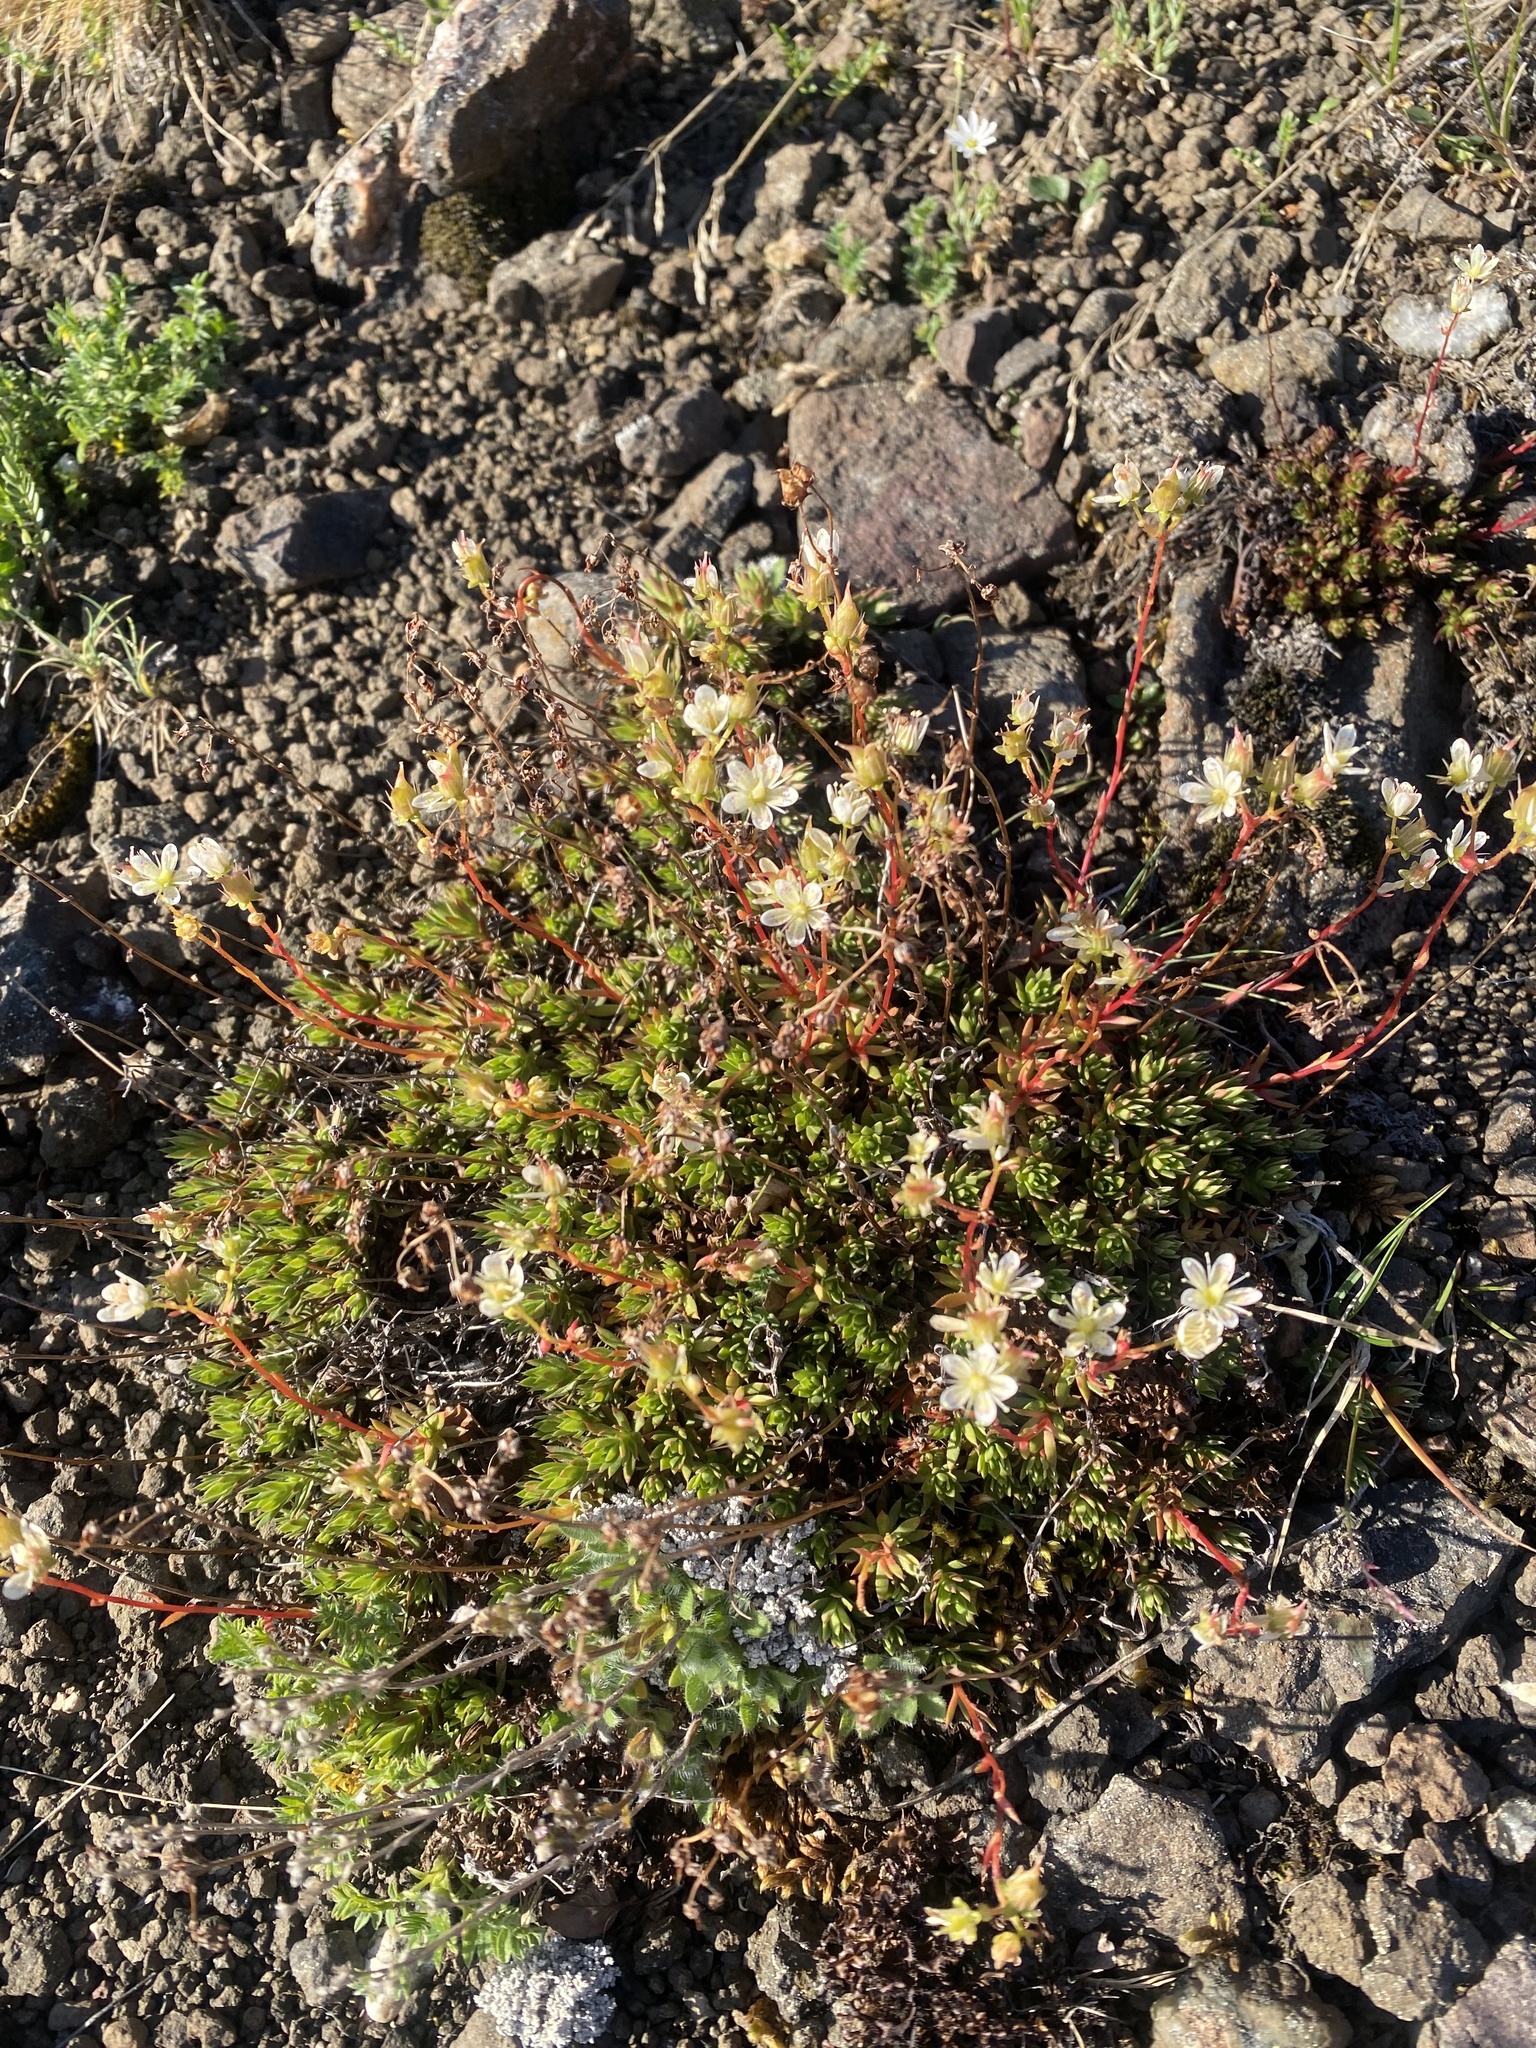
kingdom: Plantae
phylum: Tracheophyta
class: Magnoliopsida
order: Saxifragales
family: Saxifragaceae
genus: Saxifraga
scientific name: Saxifraga
